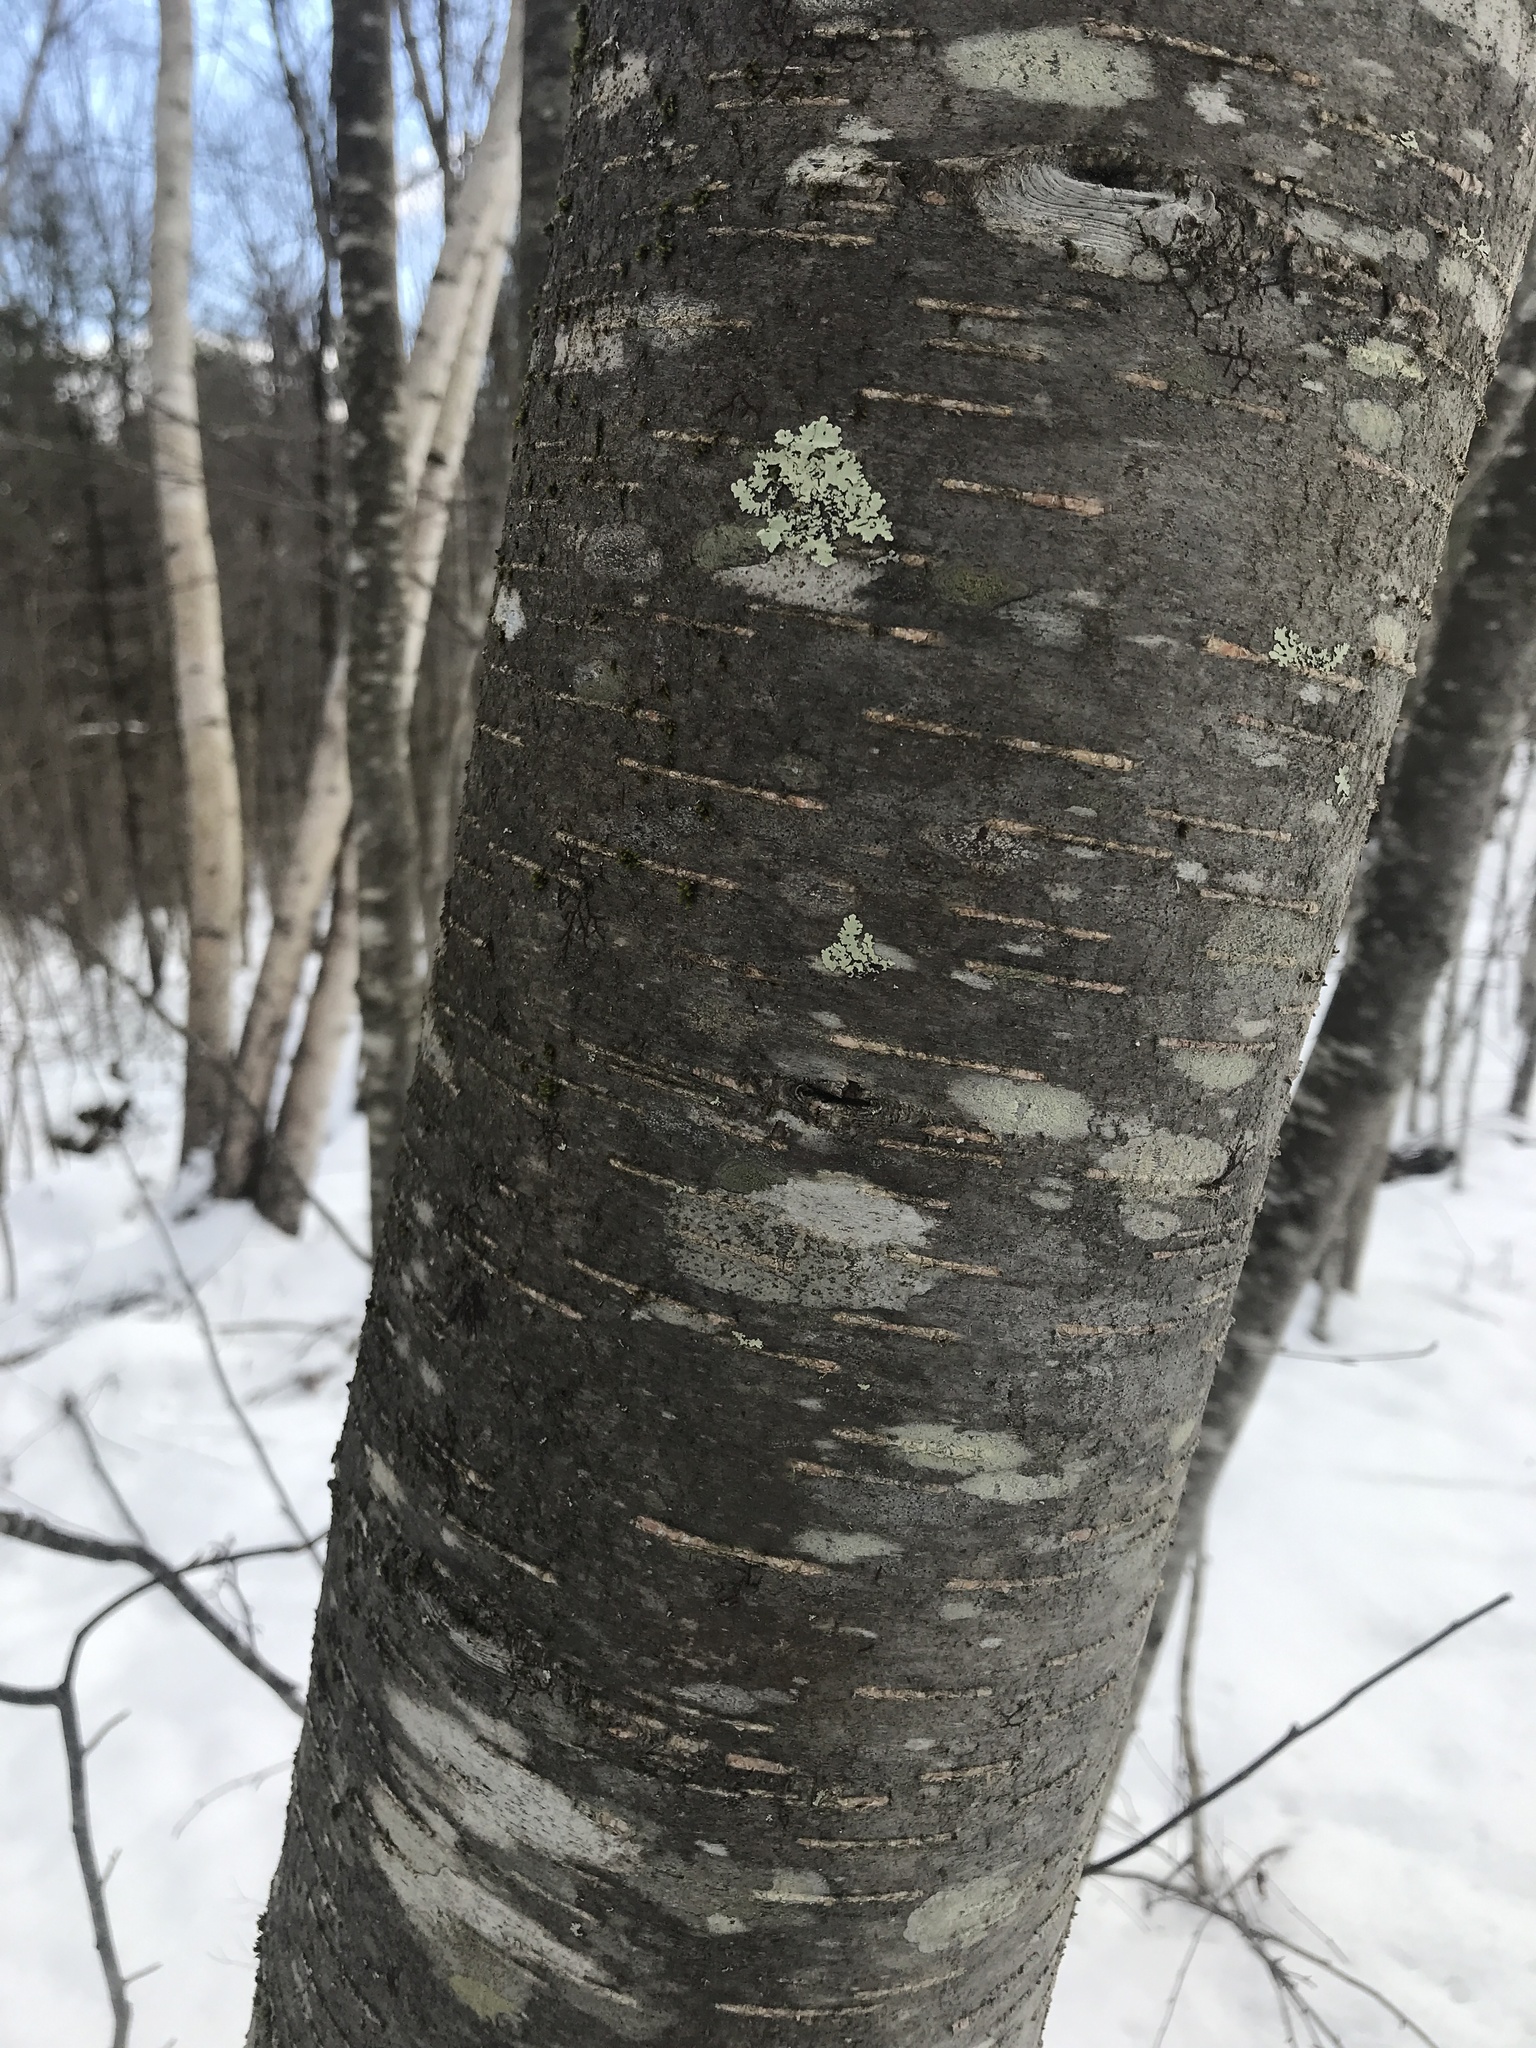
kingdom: Plantae
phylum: Tracheophyta
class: Magnoliopsida
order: Fagales
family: Betulaceae
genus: Betula
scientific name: Betula lenta
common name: Black birch
